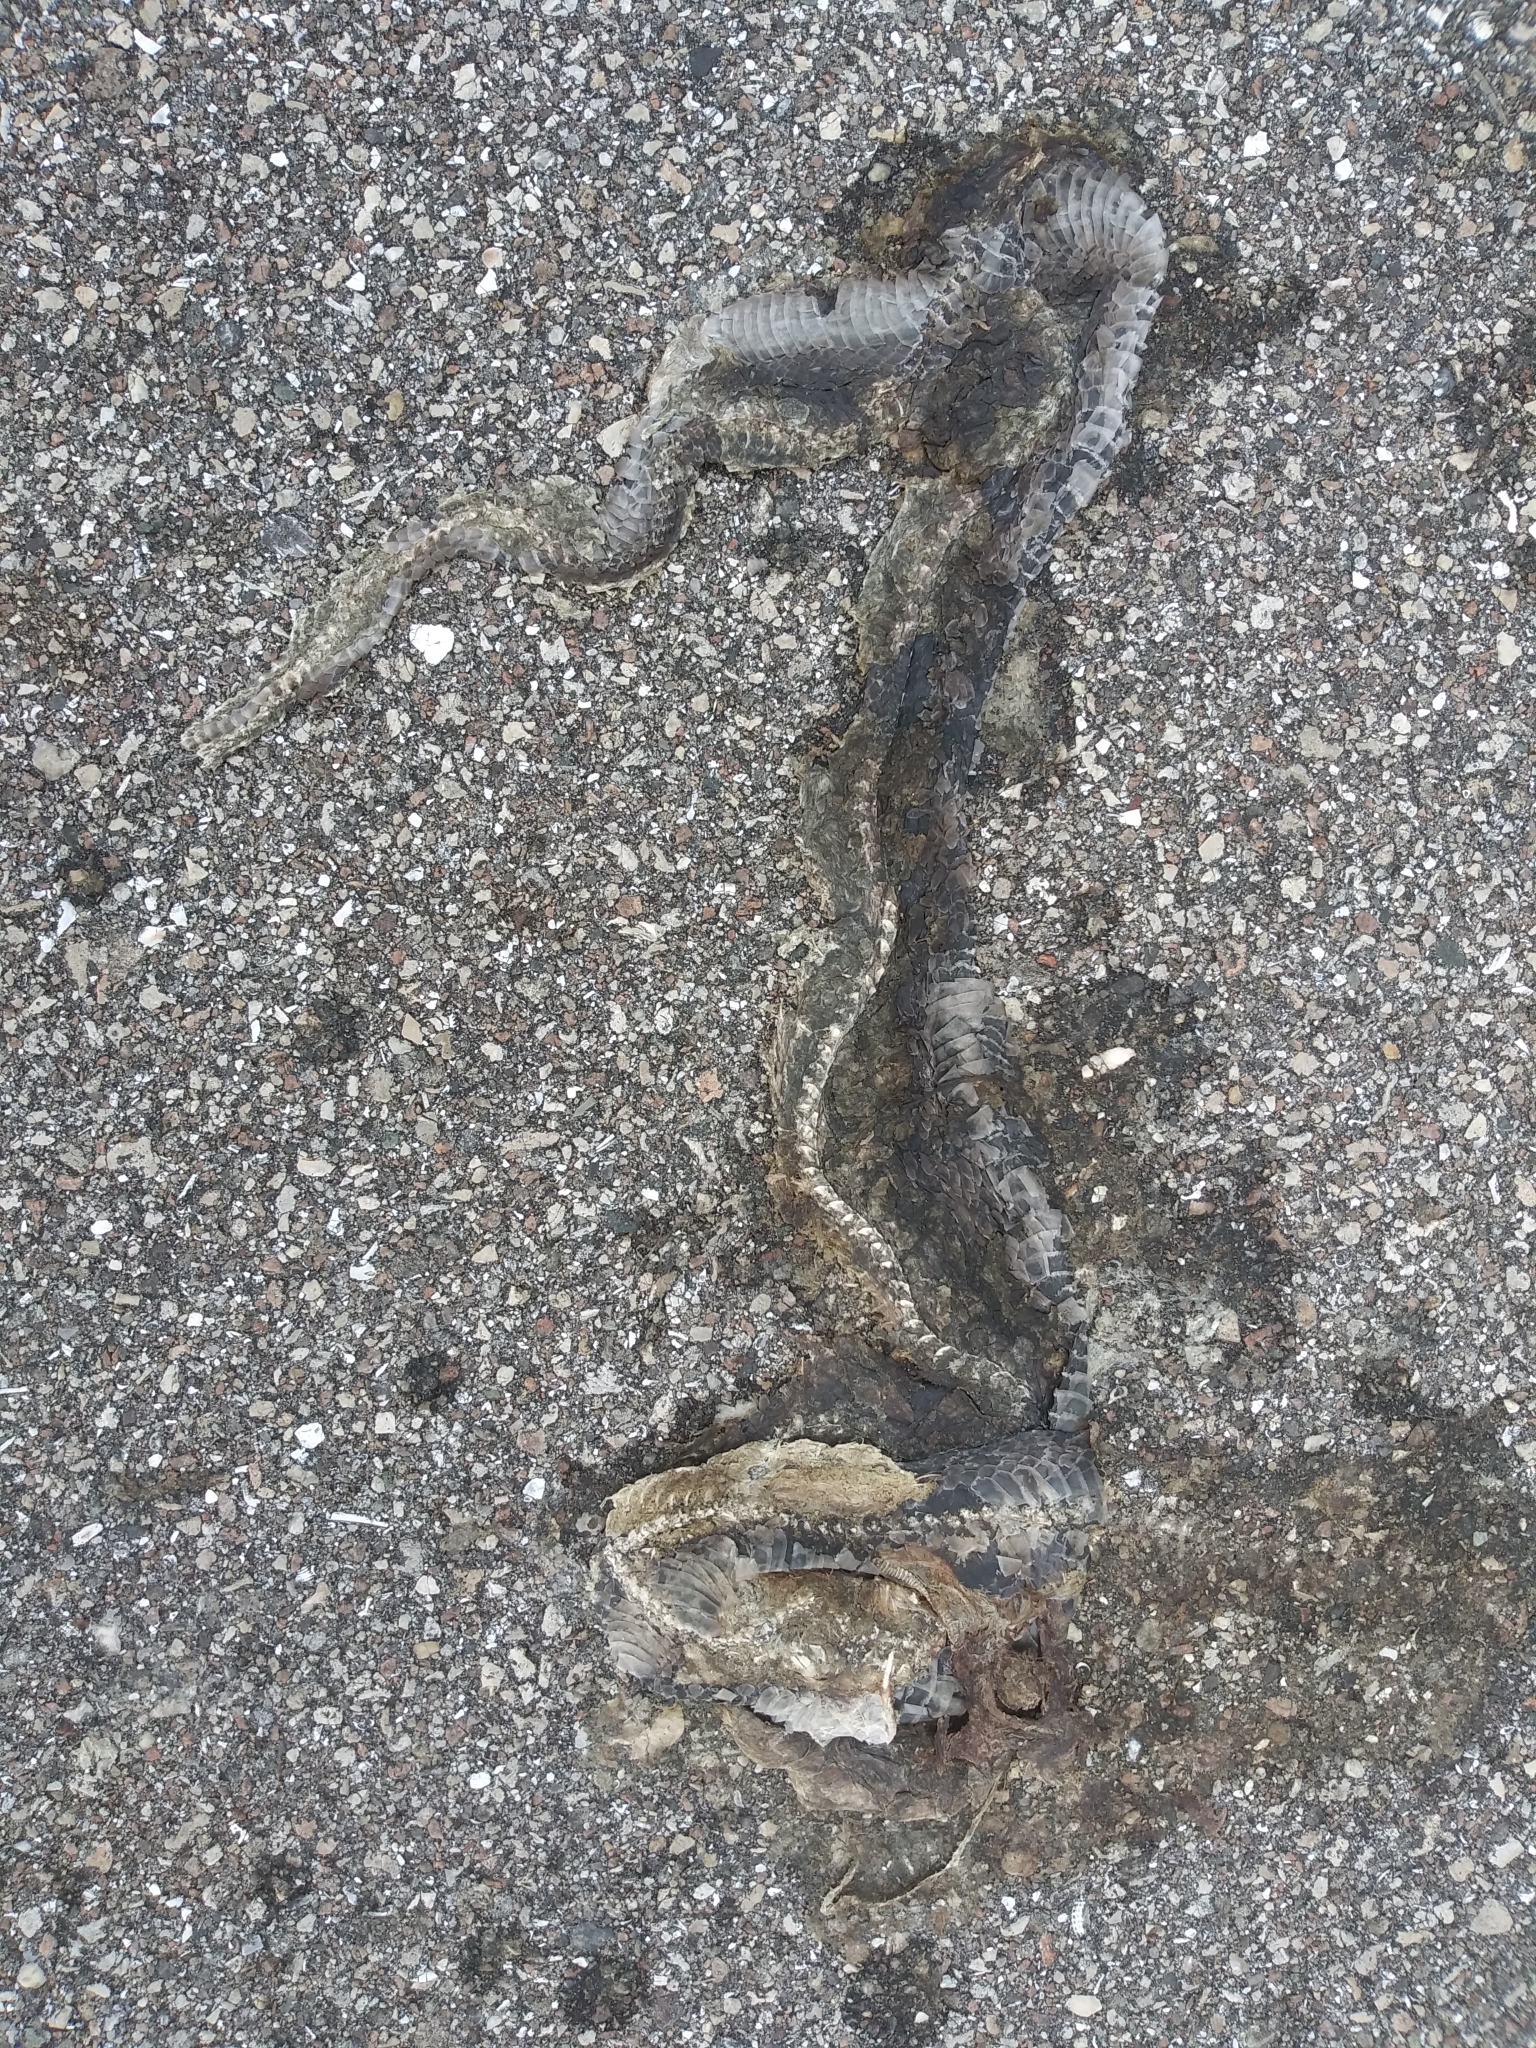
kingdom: Animalia
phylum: Chordata
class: Squamata
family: Colubridae
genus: Coluber
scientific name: Coluber constrictor
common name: Eastern racer
